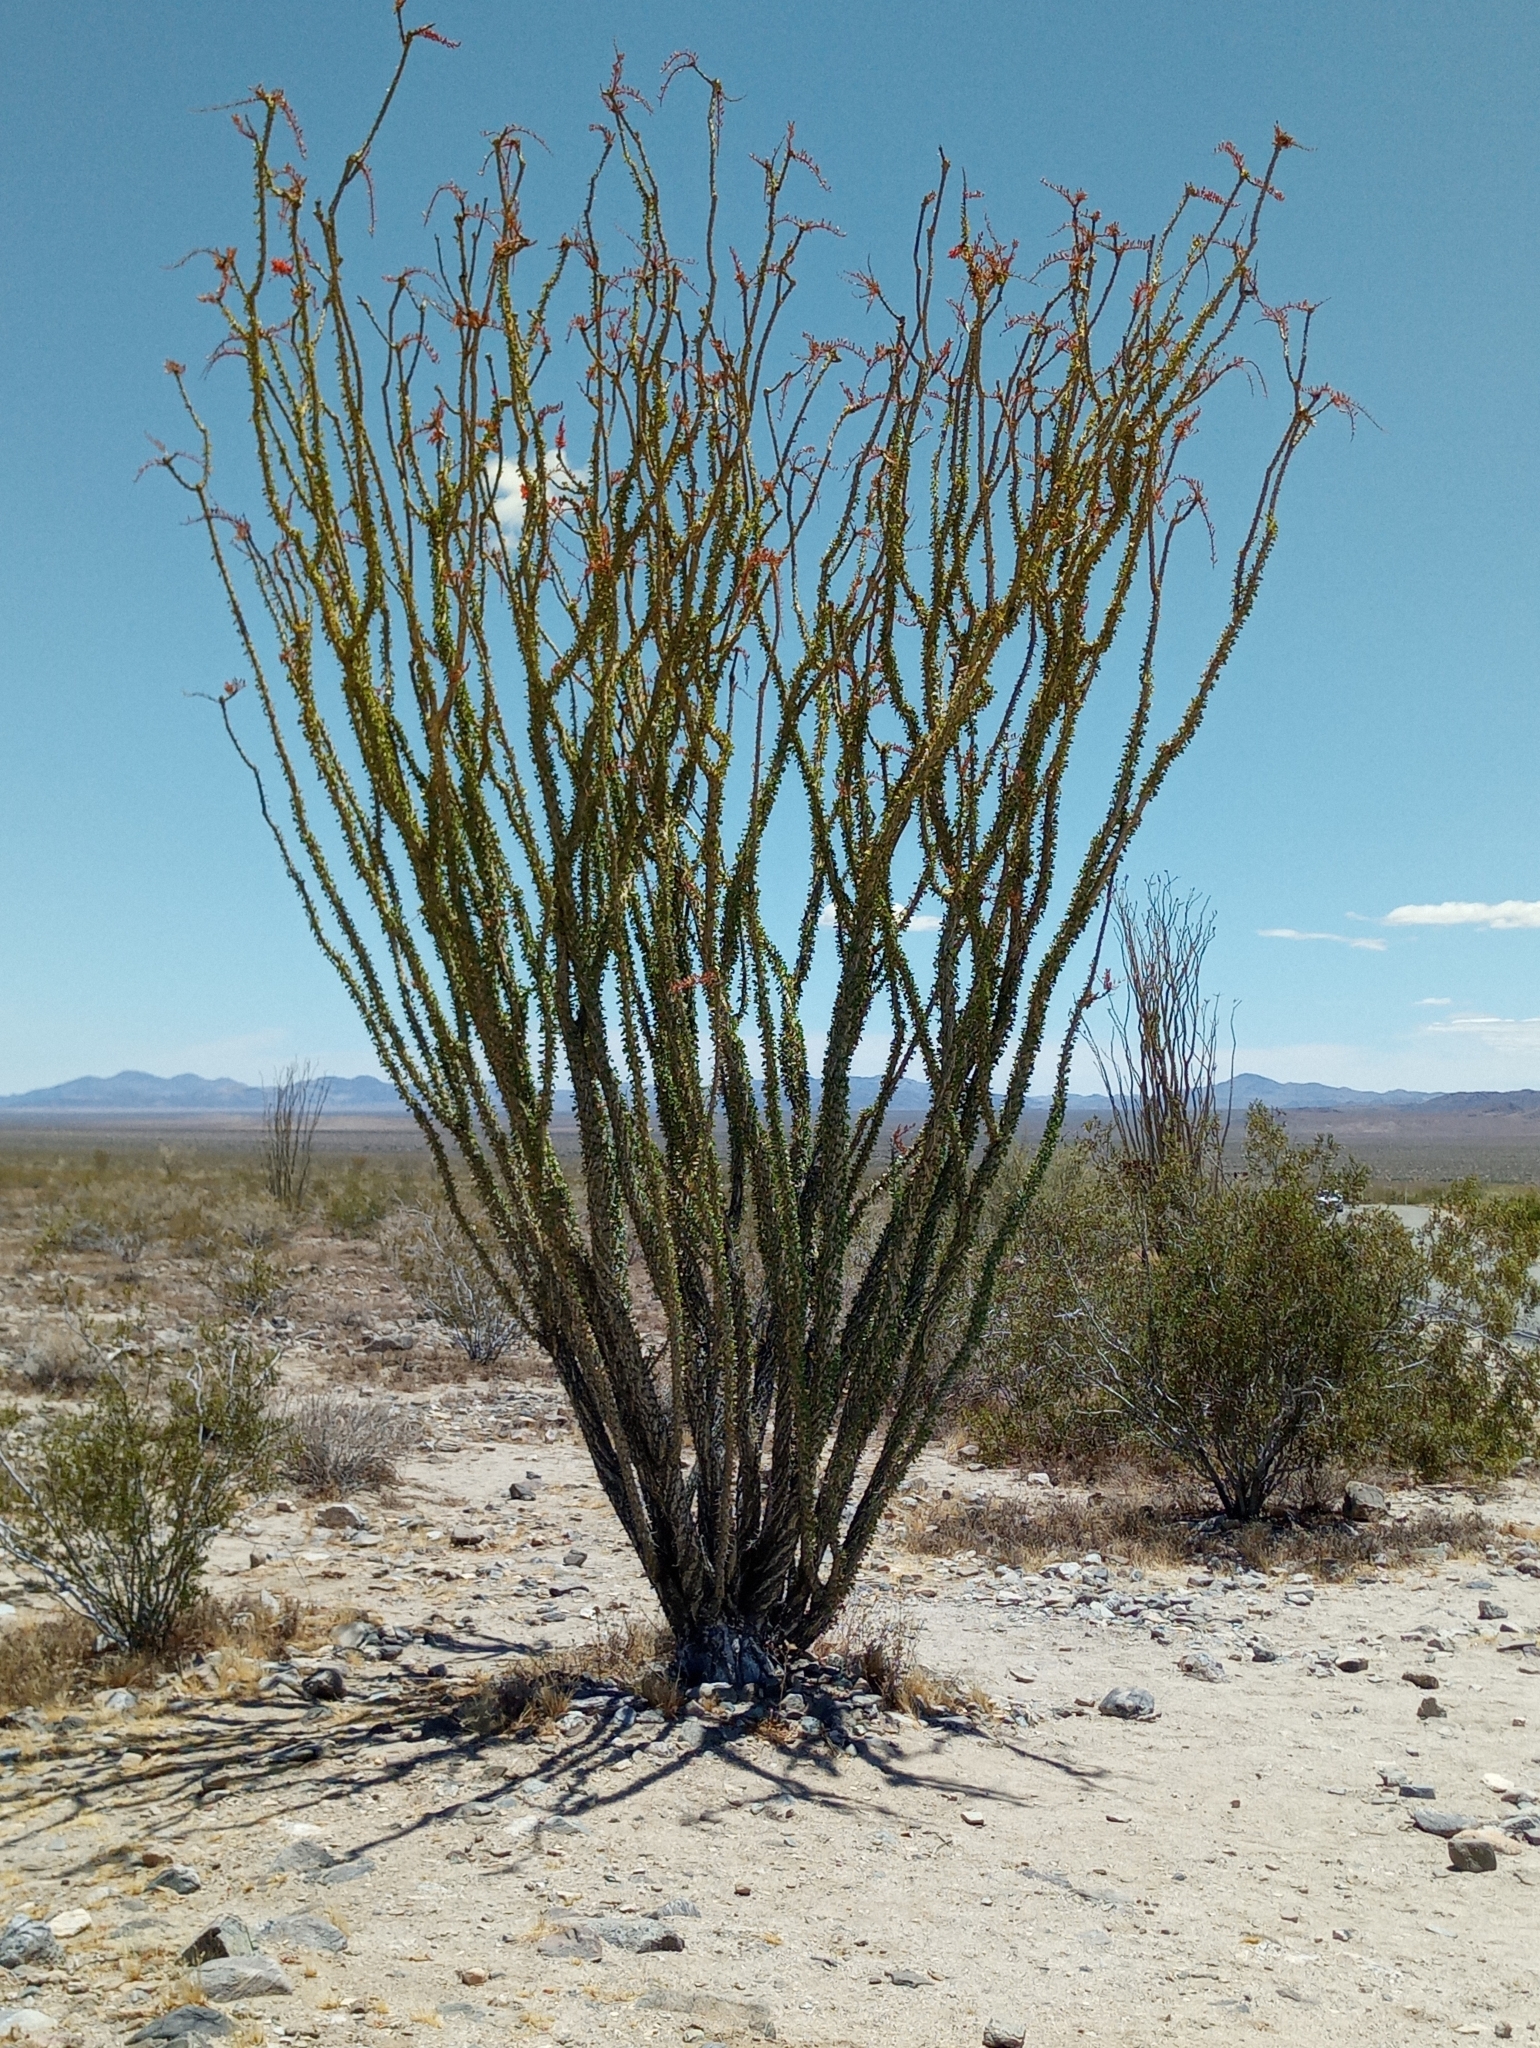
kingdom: Plantae
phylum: Tracheophyta
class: Magnoliopsida
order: Ericales
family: Fouquieriaceae
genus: Fouquieria
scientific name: Fouquieria splendens
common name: Vine-cactus
